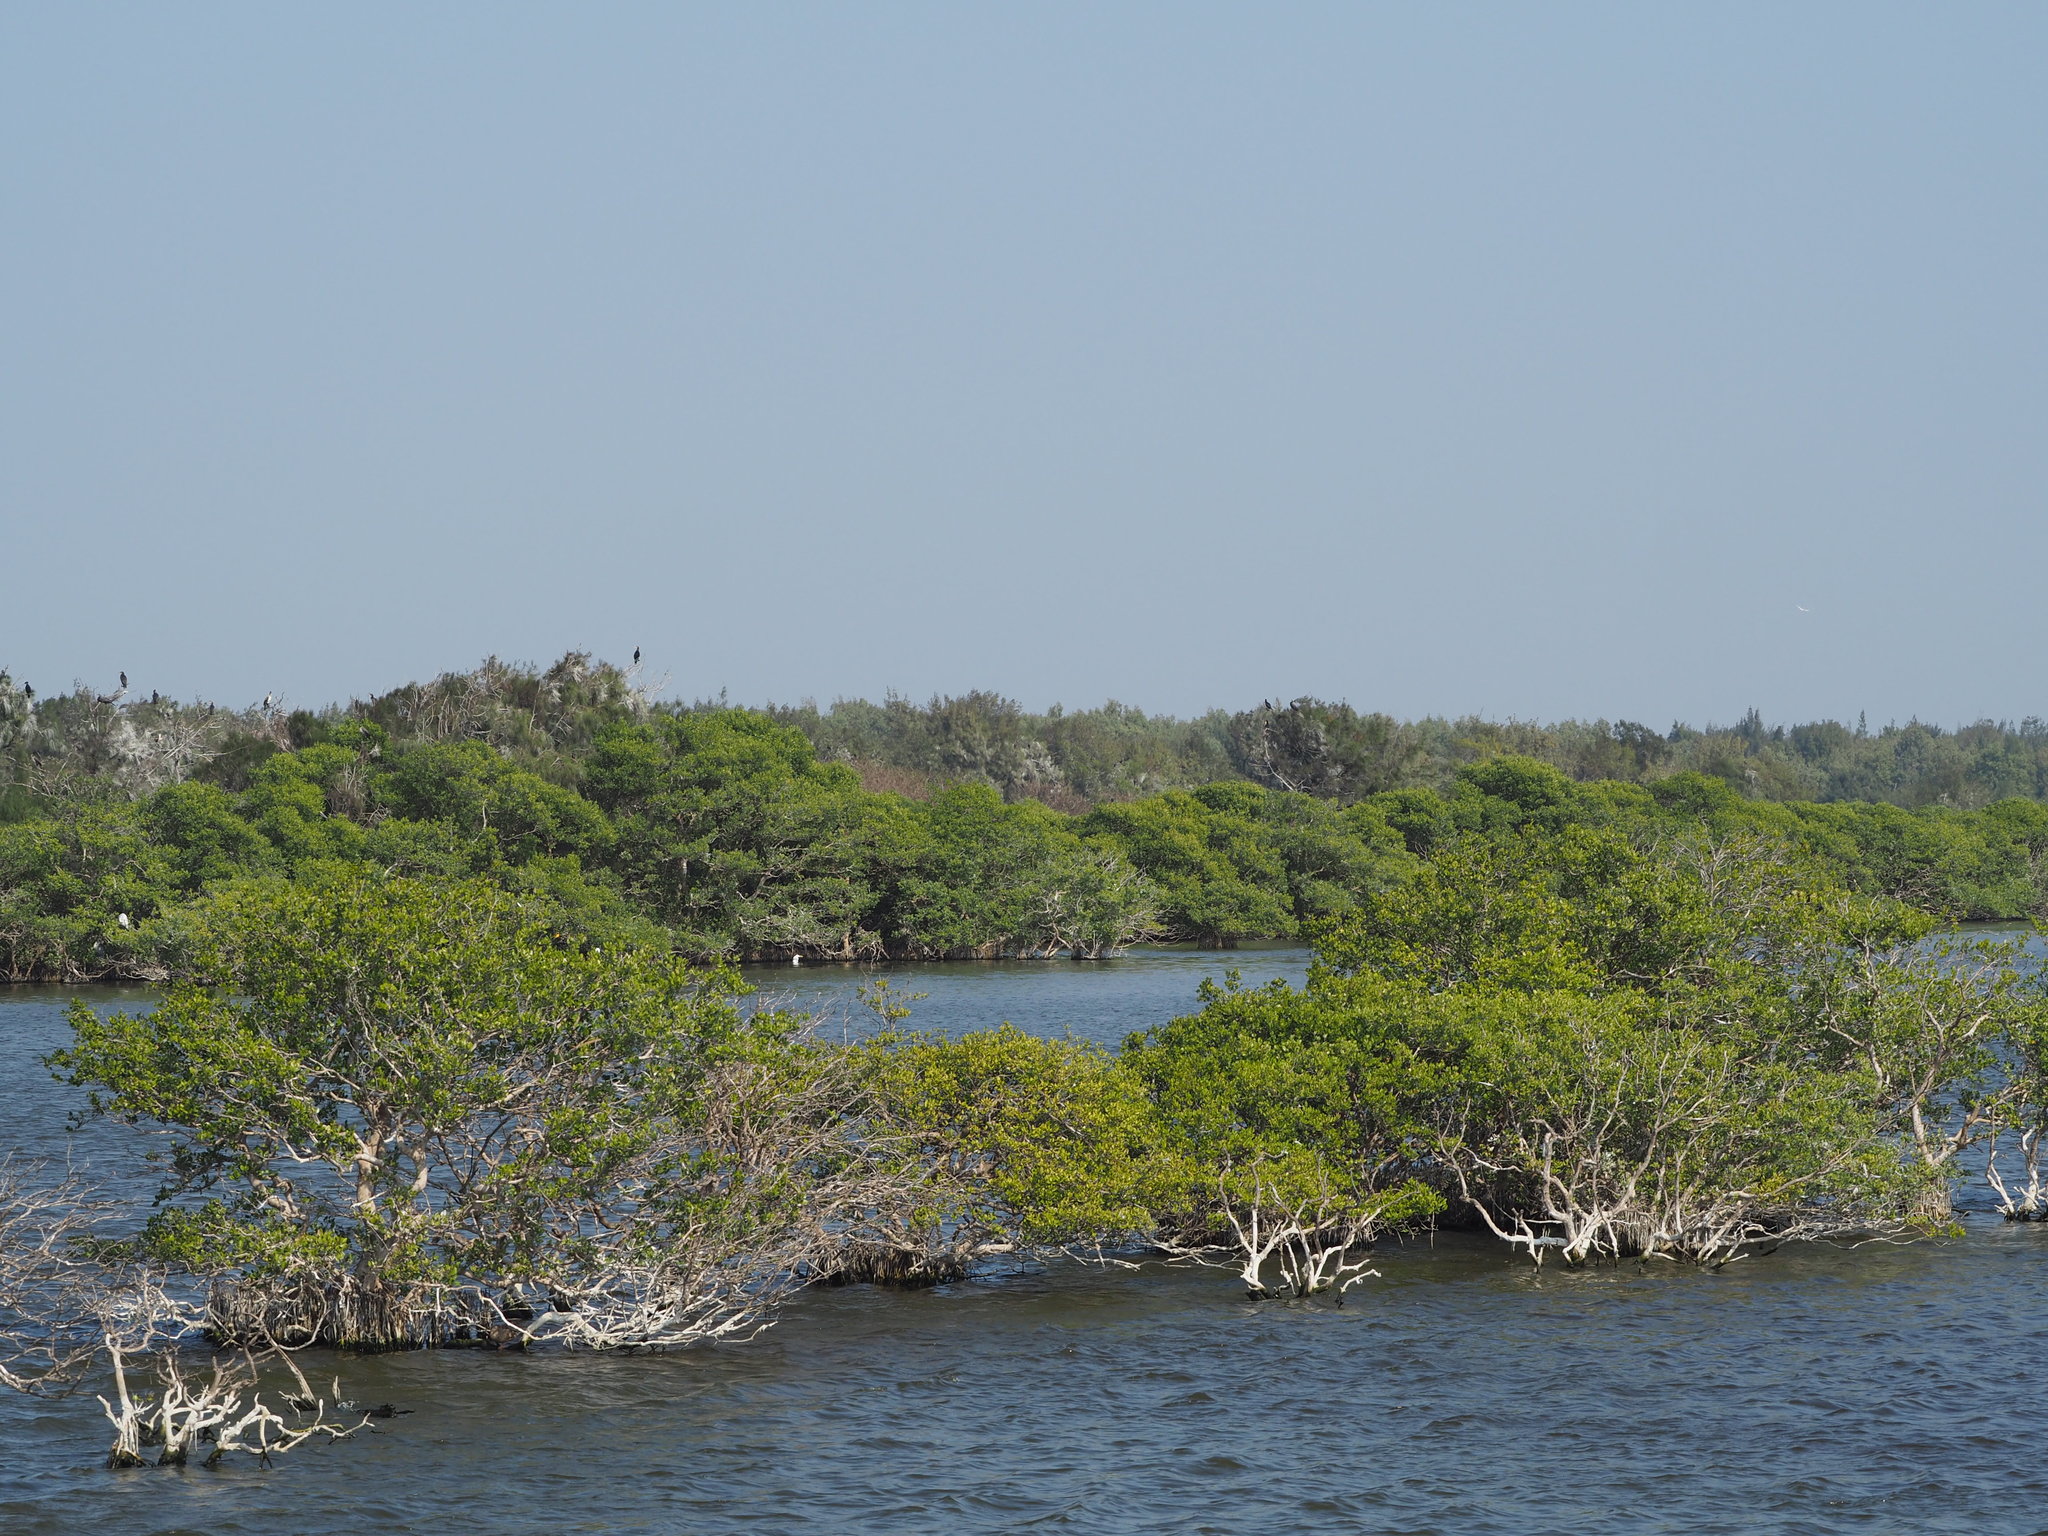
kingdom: Plantae
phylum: Tracheophyta
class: Magnoliopsida
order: Lamiales
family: Acanthaceae
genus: Avicennia
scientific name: Avicennia marina
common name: Gray mangrove
